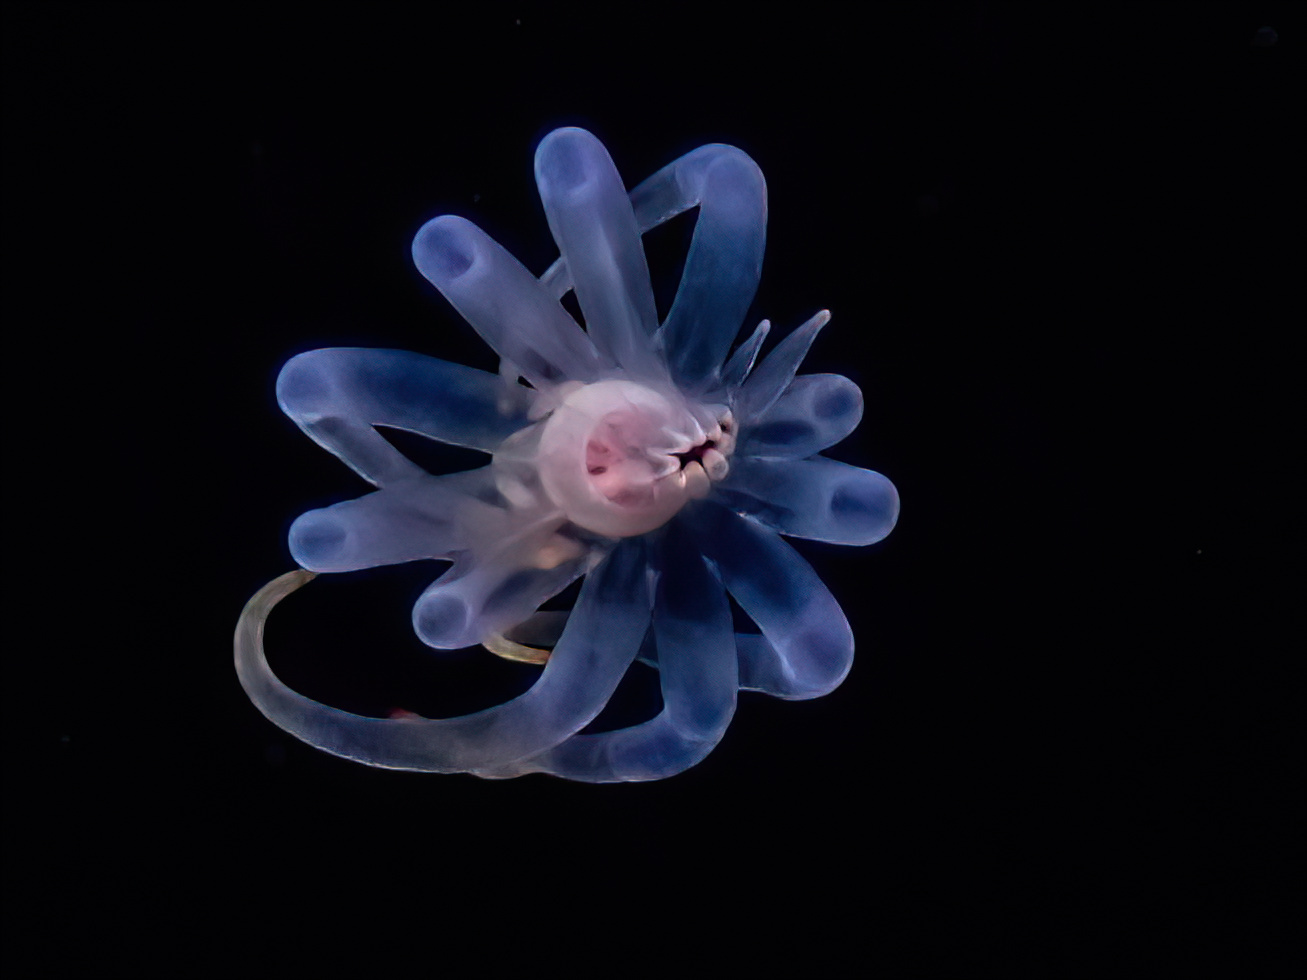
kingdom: Animalia
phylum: Cnidaria
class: Anthozoa
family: Cerianthidae
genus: Synarachnactis
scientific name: Synarachnactis
